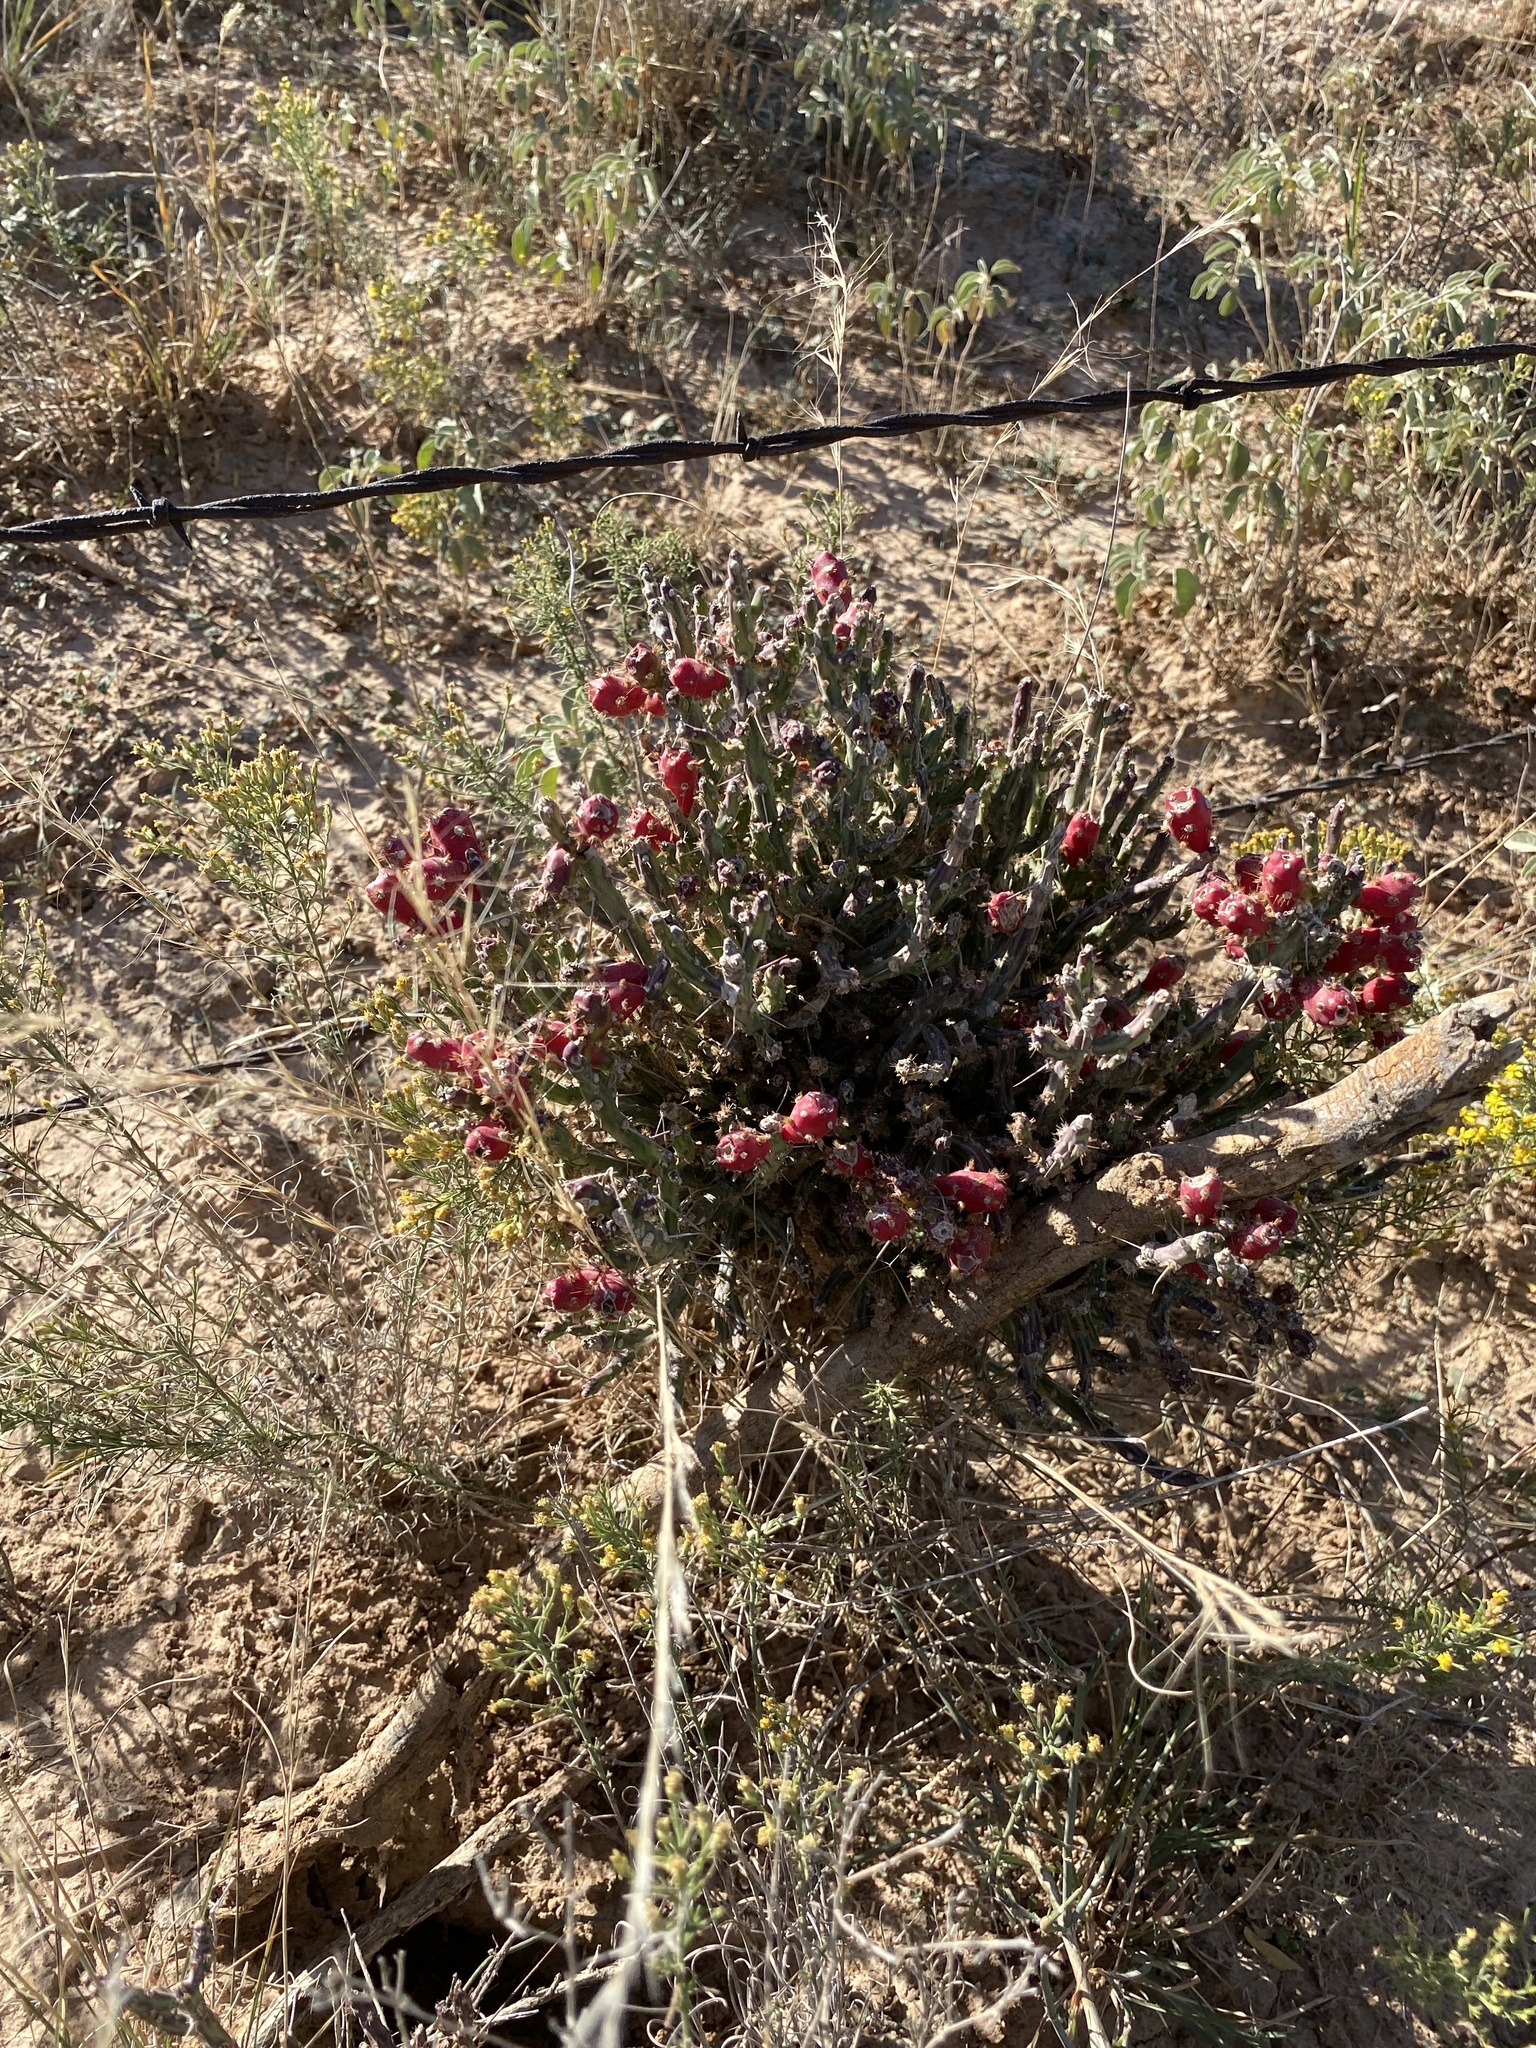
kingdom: Plantae
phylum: Tracheophyta
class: Magnoliopsida
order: Caryophyllales
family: Cactaceae
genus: Cylindropuntia
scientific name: Cylindropuntia leptocaulis
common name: Christmas cactus
